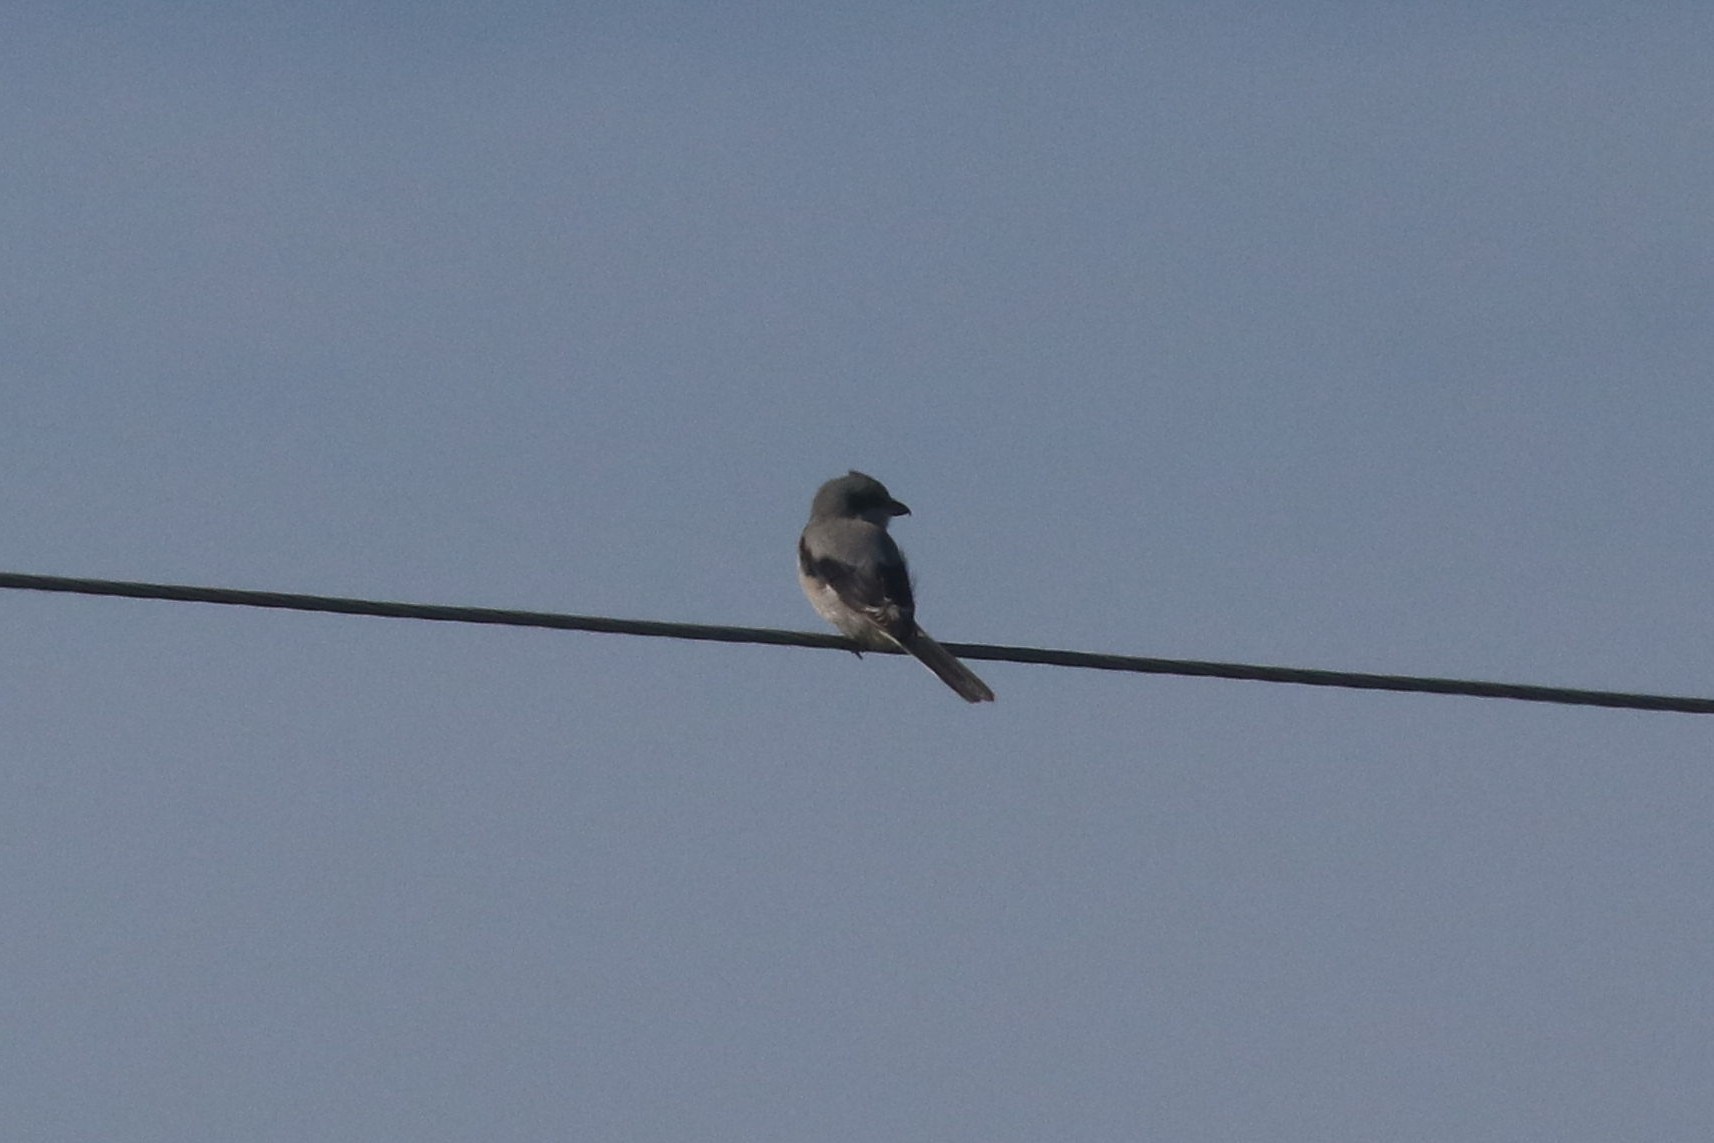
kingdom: Animalia
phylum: Chordata
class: Aves
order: Passeriformes
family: Laniidae
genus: Lanius
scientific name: Lanius excubitor
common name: Great grey shrike
